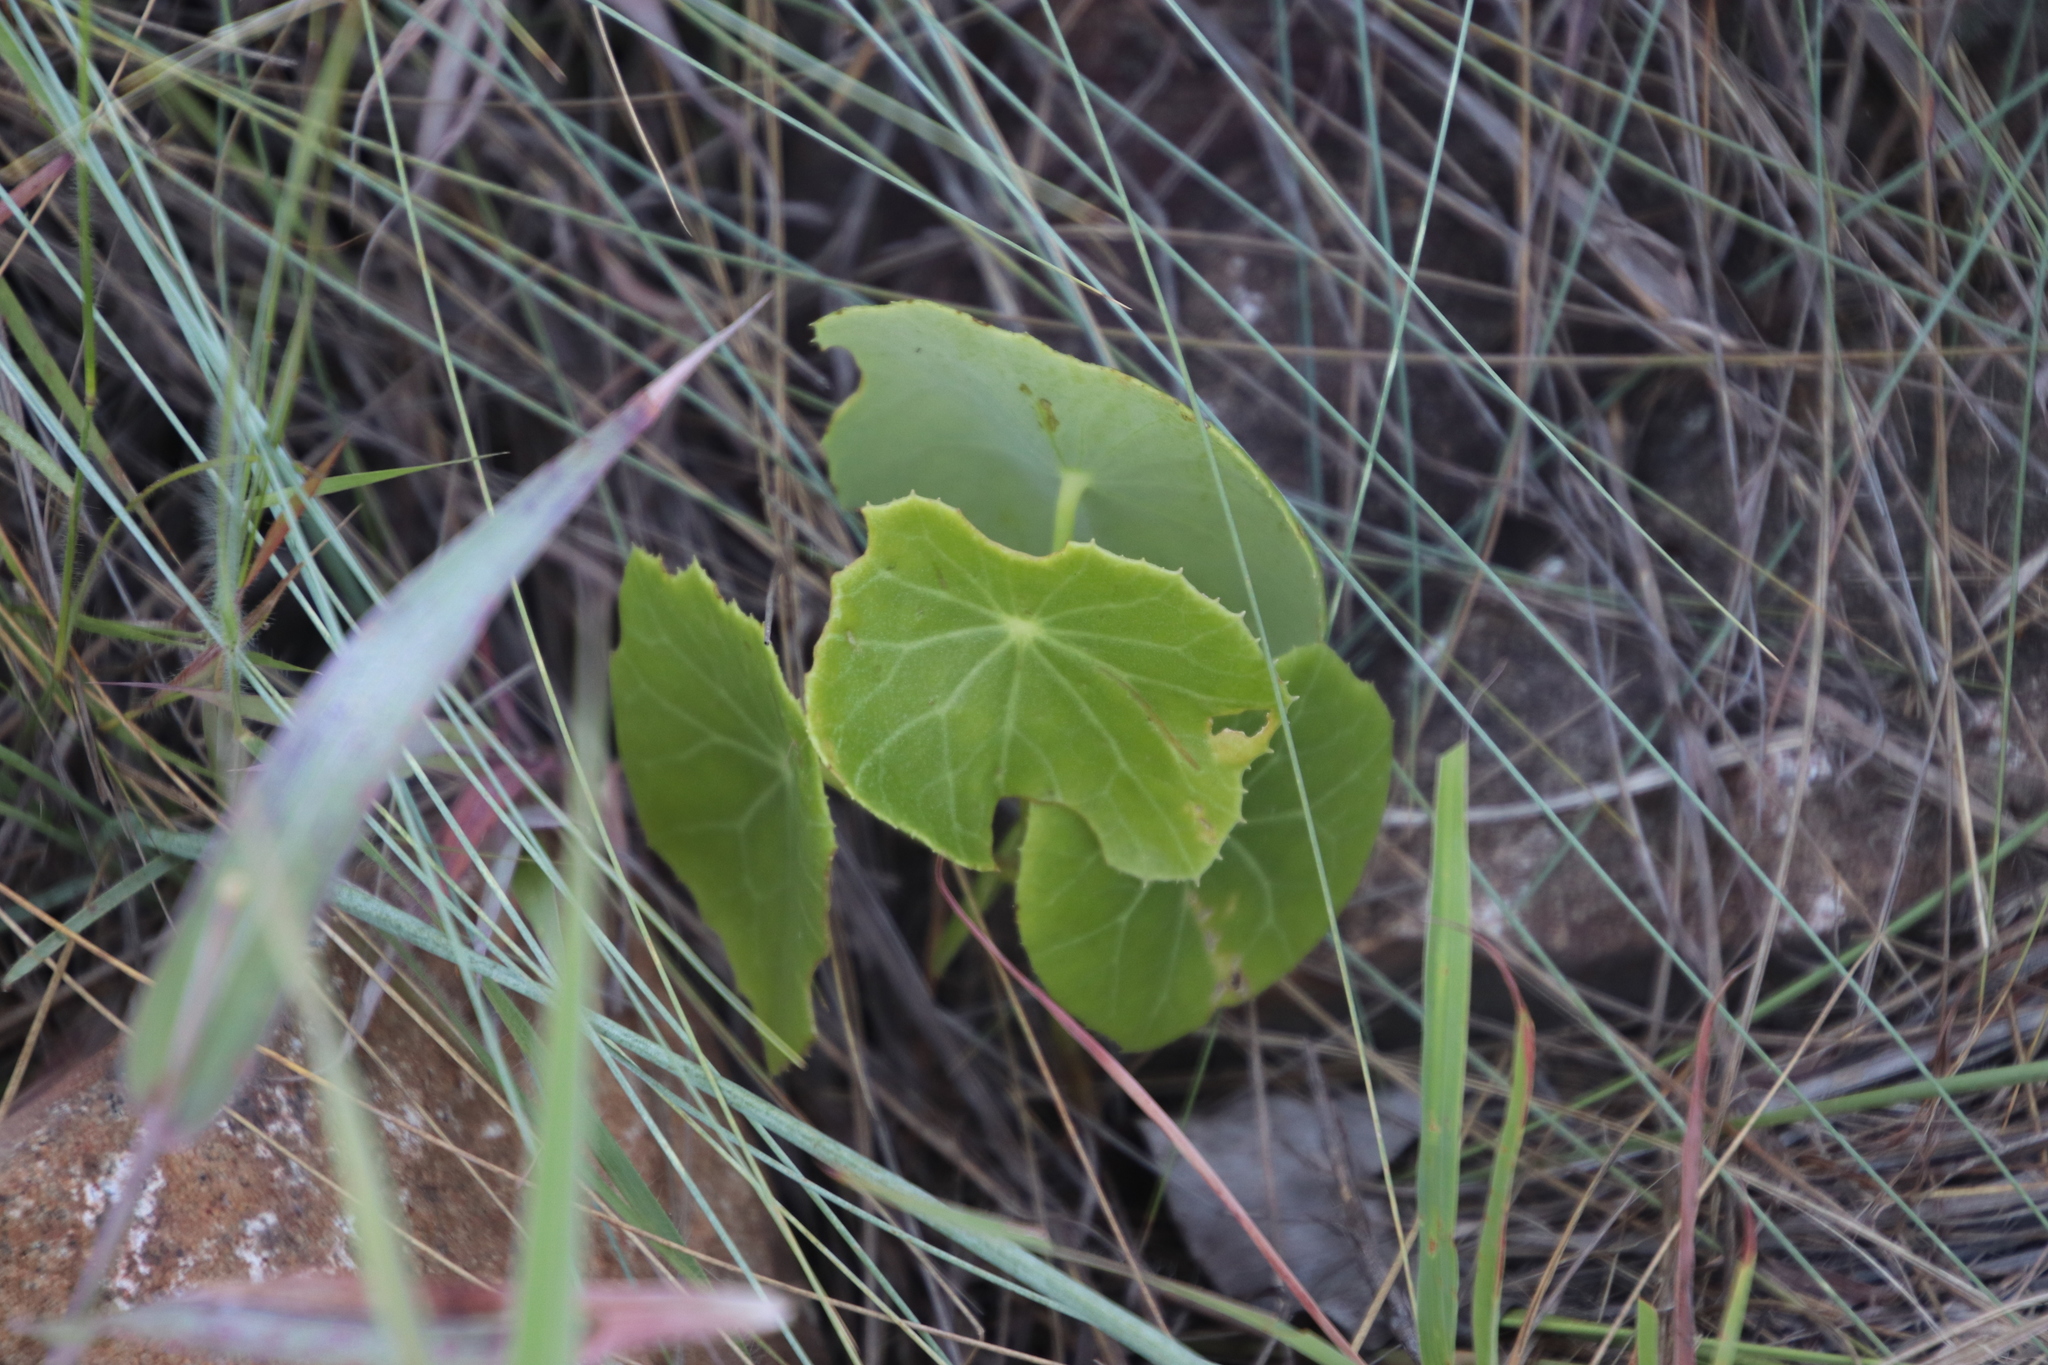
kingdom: Plantae
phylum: Tracheophyta
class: Magnoliopsida
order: Asterales
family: Asteraceae
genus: Senecio
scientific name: Senecio oxyriifolius
